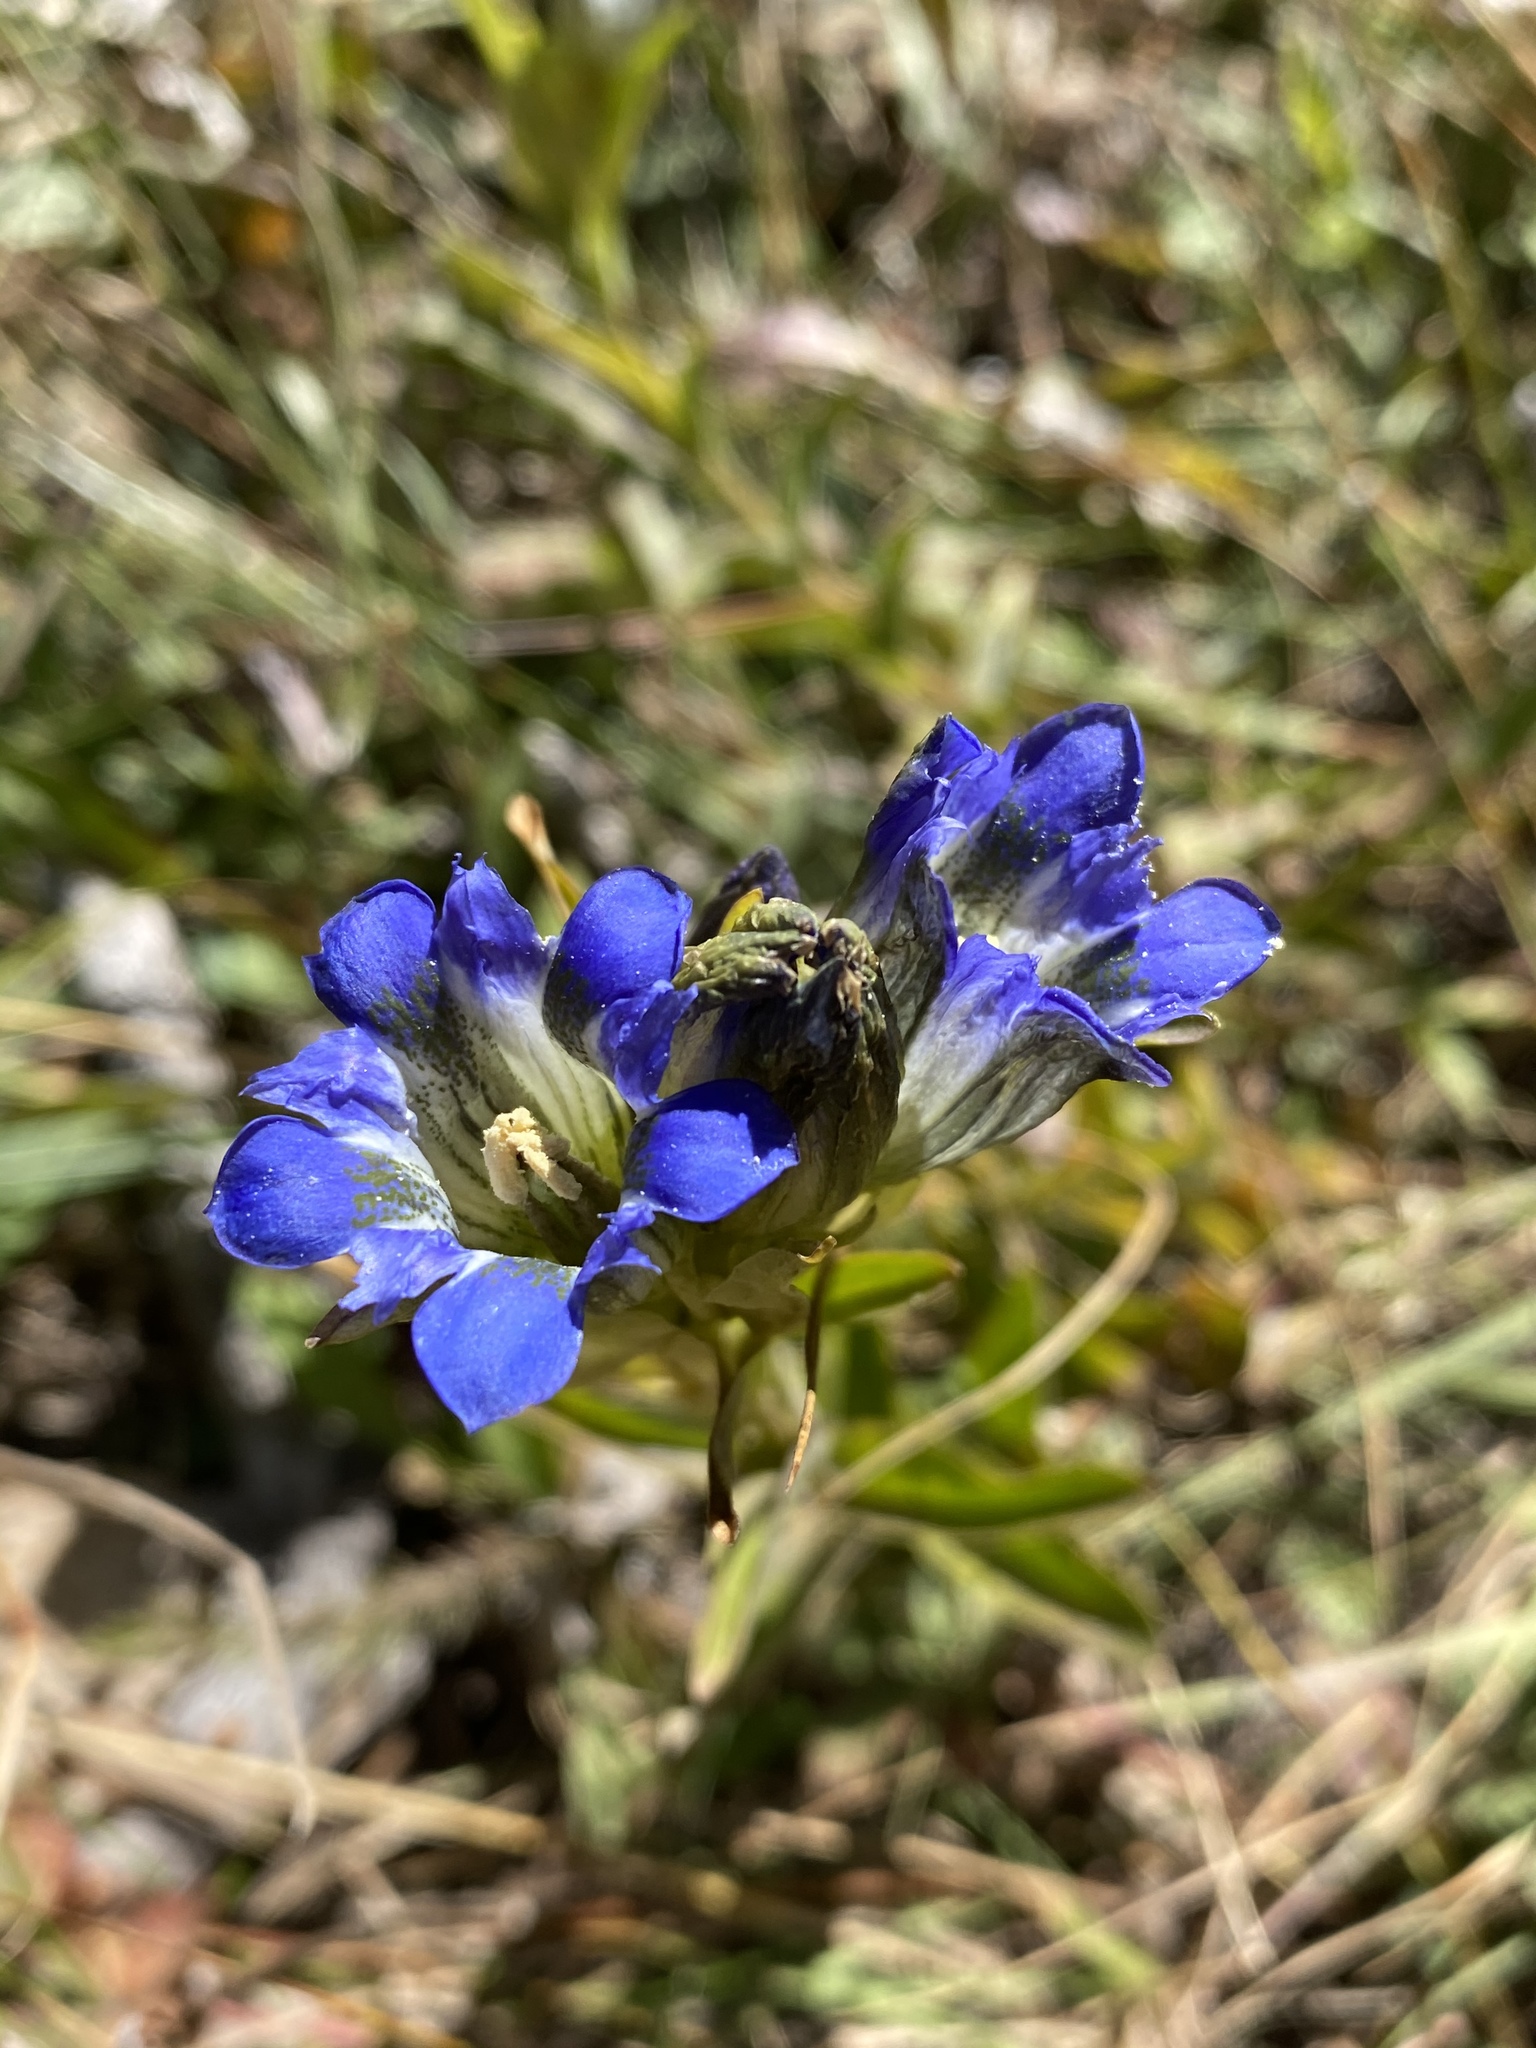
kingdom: Plantae
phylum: Tracheophyta
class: Magnoliopsida
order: Gentianales
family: Gentianaceae
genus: Gentiana
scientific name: Gentiana parryi
